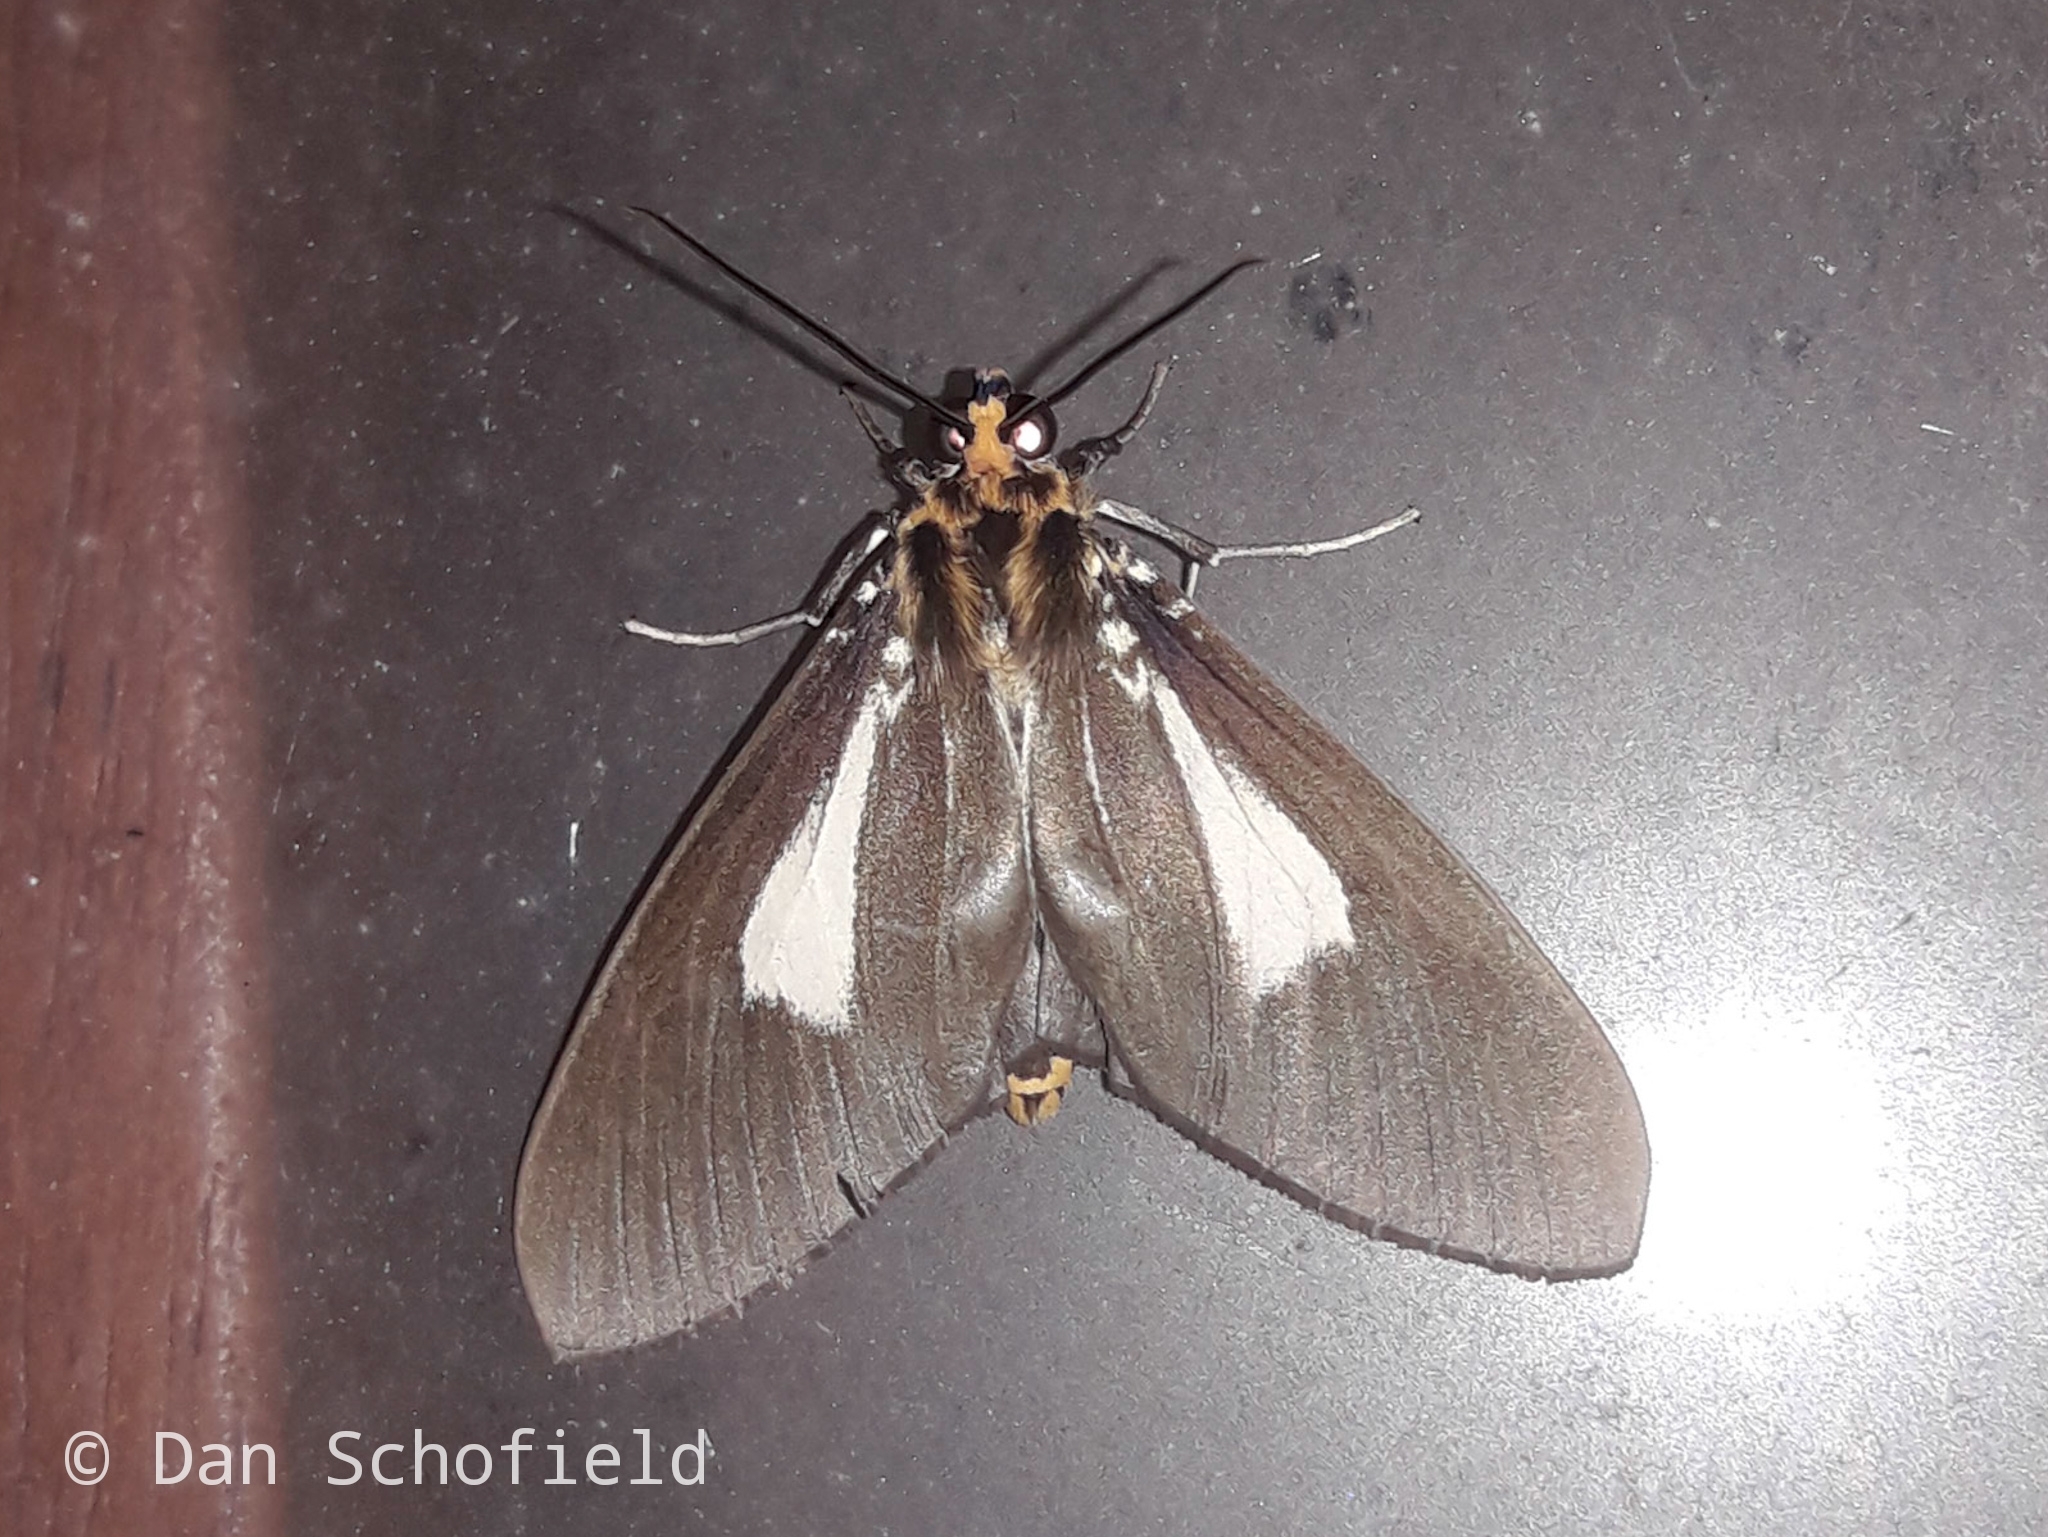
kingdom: Animalia
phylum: Arthropoda
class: Insecta
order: Lepidoptera
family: Erebidae
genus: Asota
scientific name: Asota heliconia
